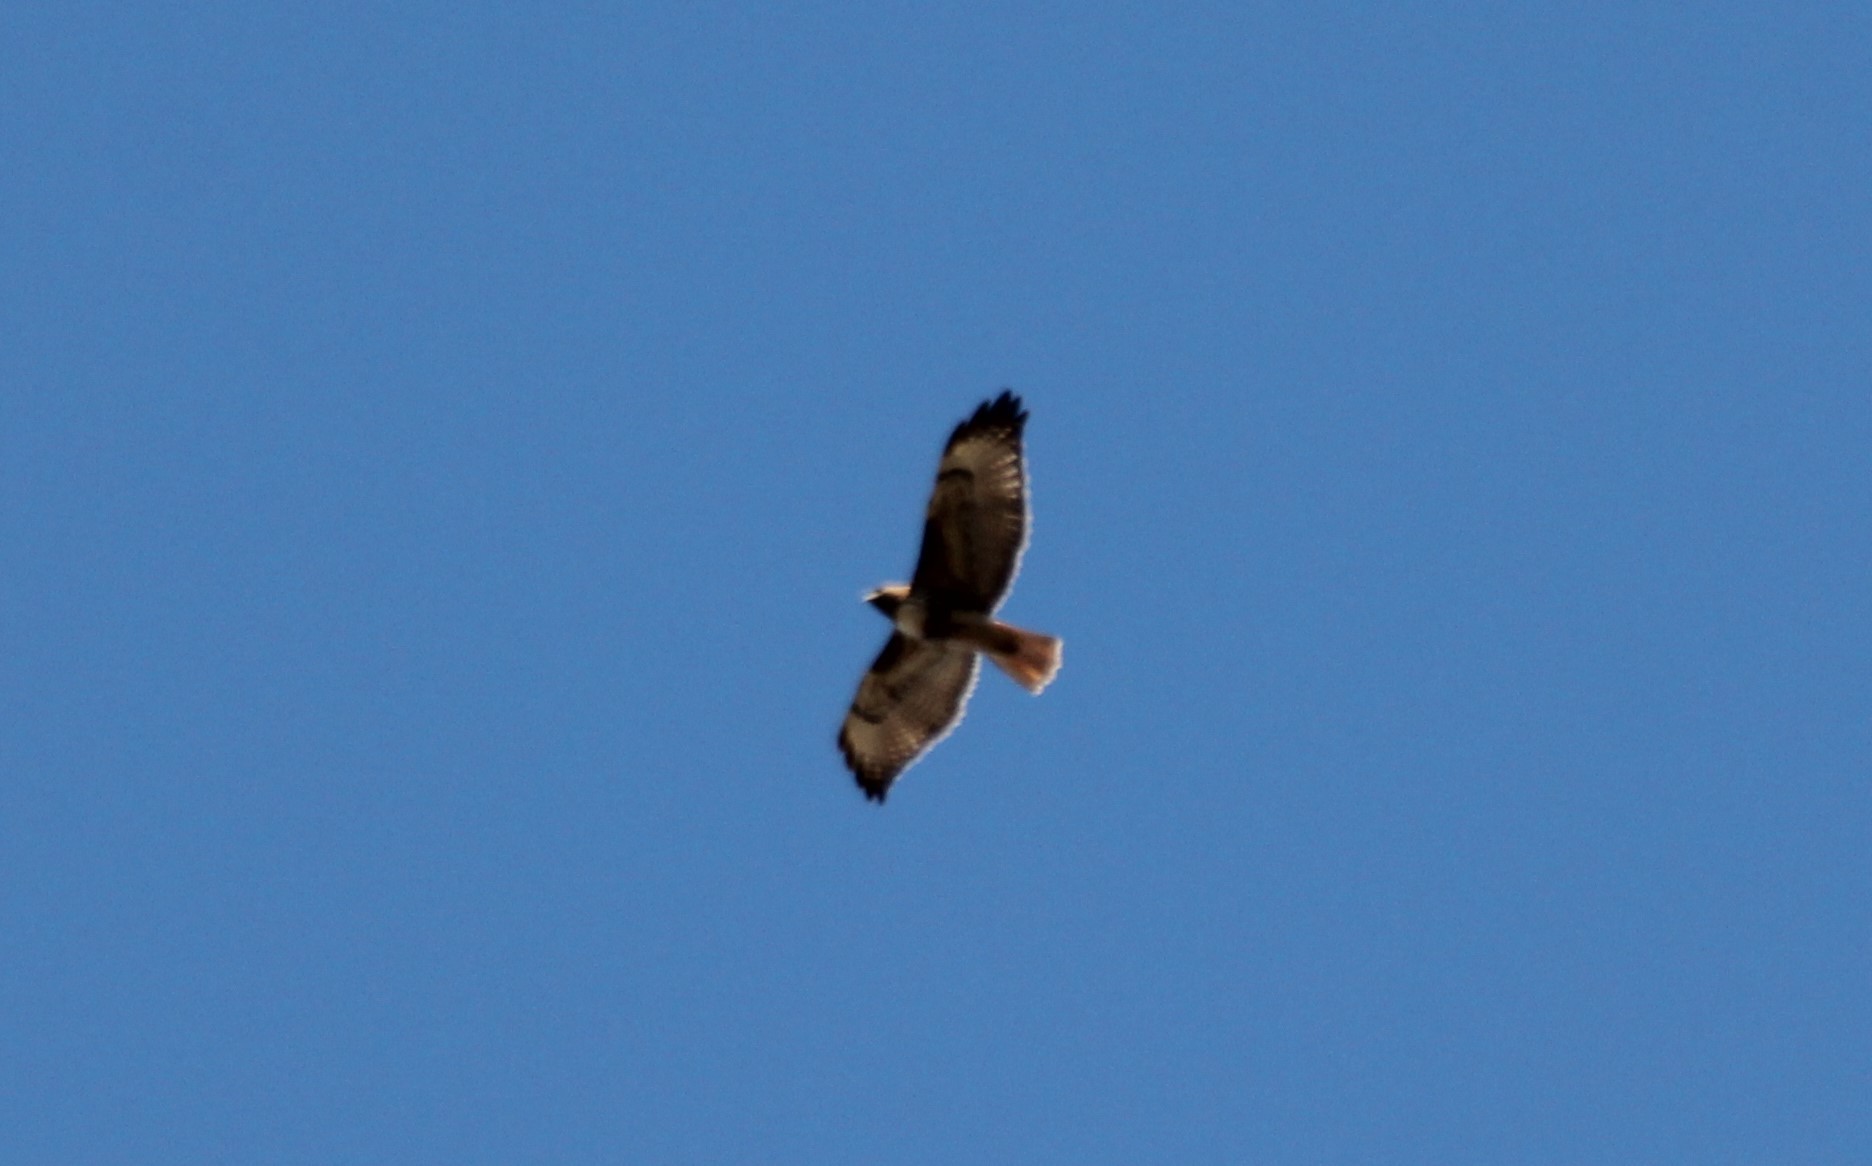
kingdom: Animalia
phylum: Chordata
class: Aves
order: Accipitriformes
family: Accipitridae
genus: Buteo
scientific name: Buteo jamaicensis
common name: Red-tailed hawk
